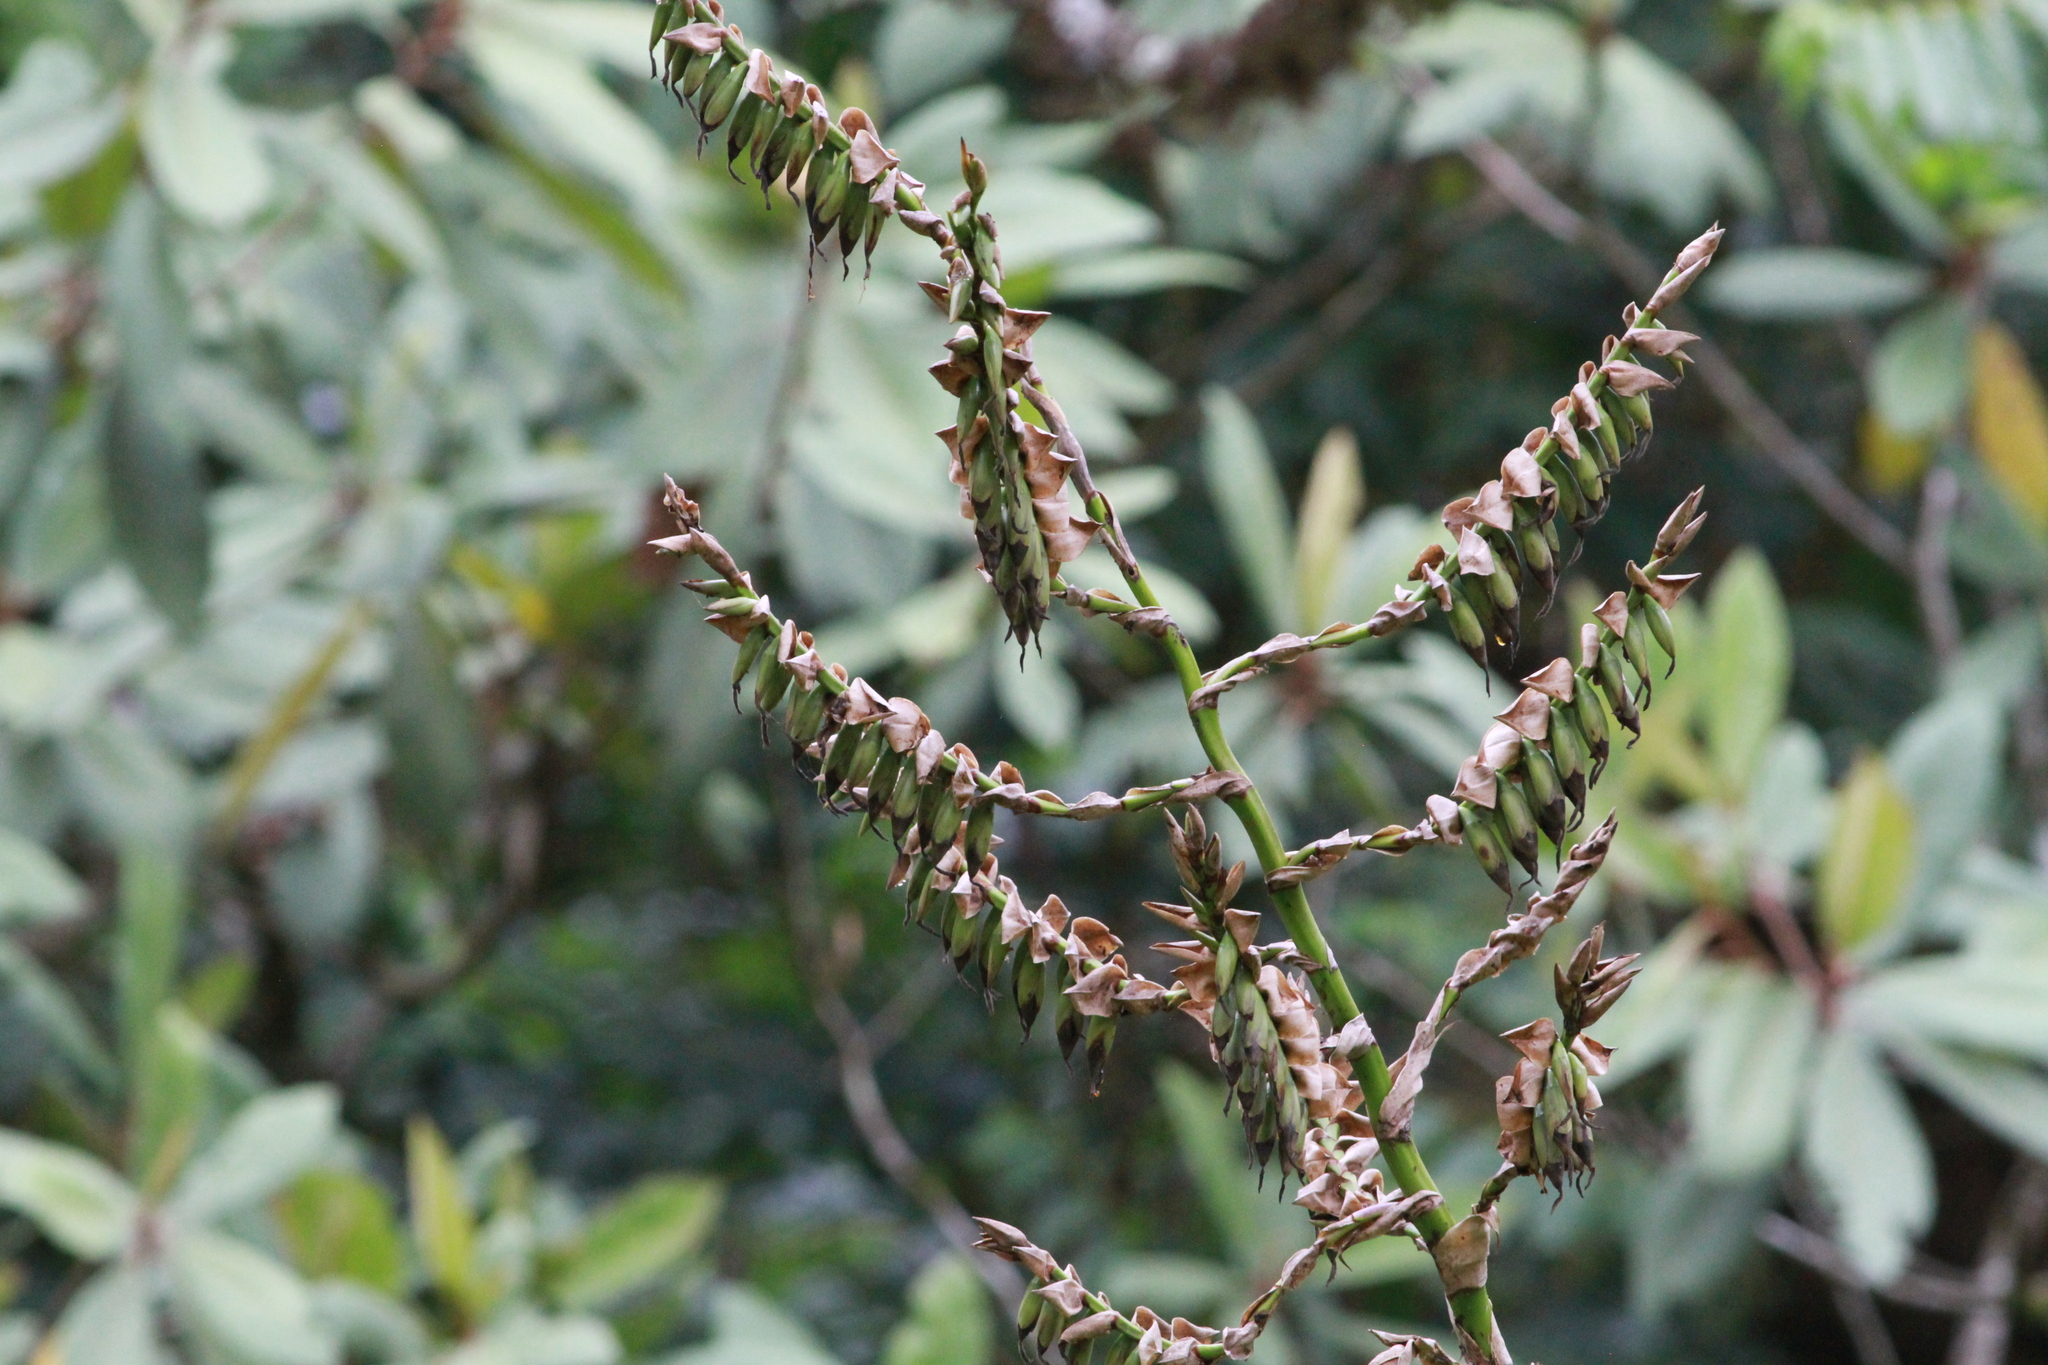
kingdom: Plantae
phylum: Tracheophyta
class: Liliopsida
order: Poales
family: Bromeliaceae
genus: Werauhia
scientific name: Werauhia werckleana
